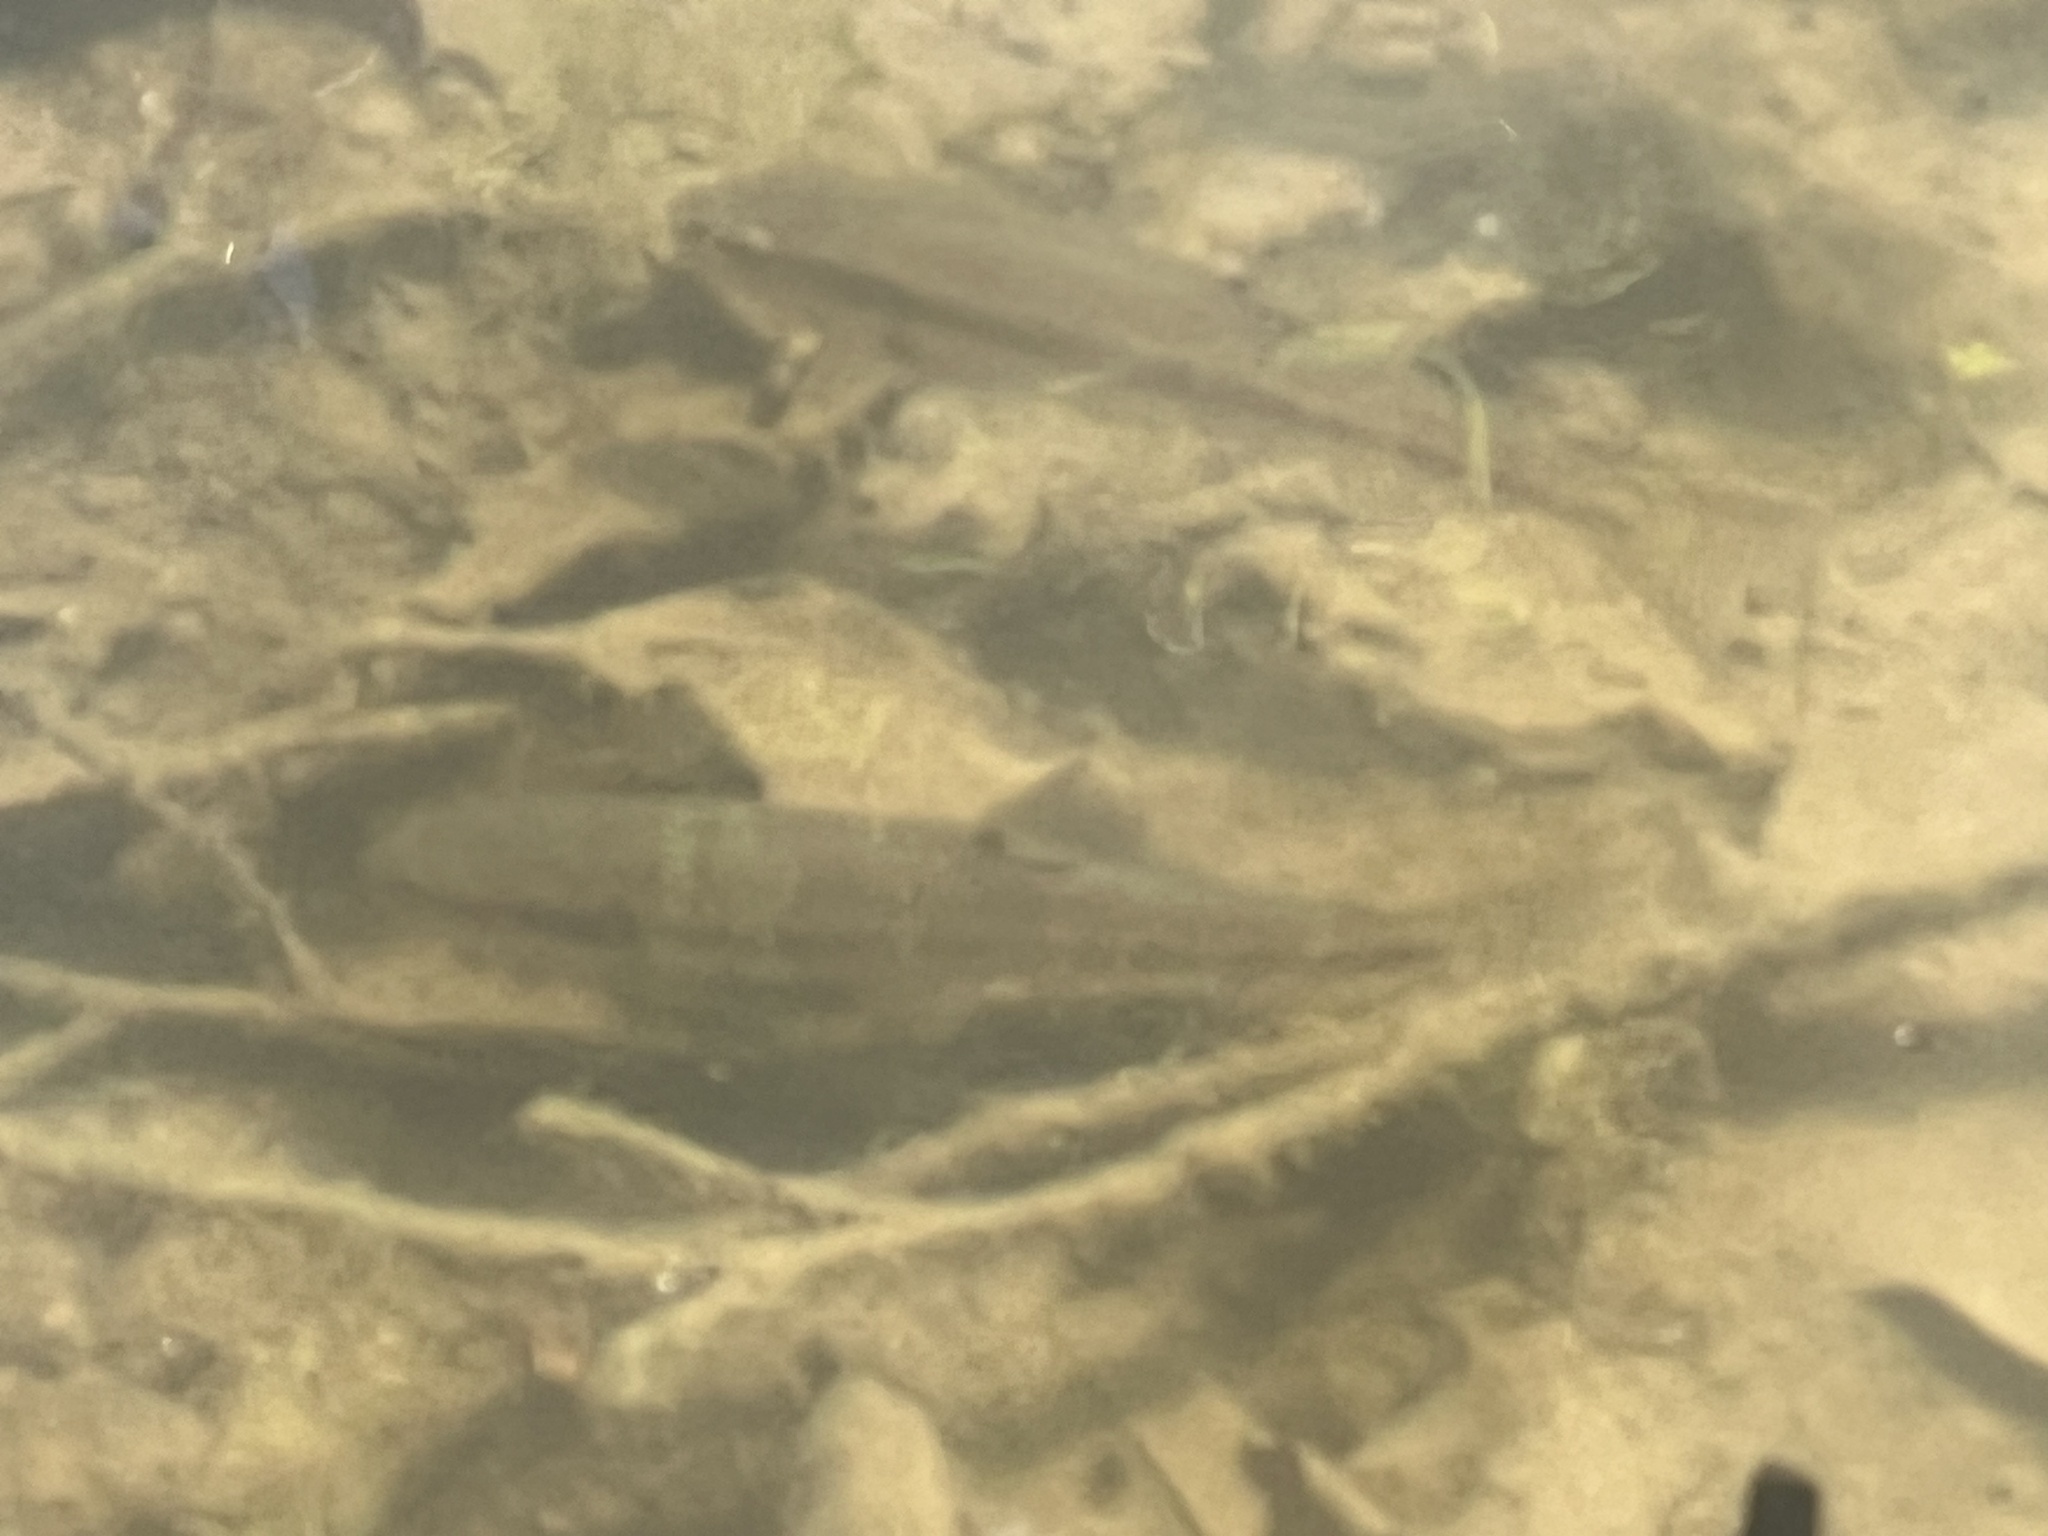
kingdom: Animalia
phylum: Chordata
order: Cypriniformes
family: Cyprinidae
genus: Semotilus
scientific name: Semotilus atromaculatus
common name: Creek chub
